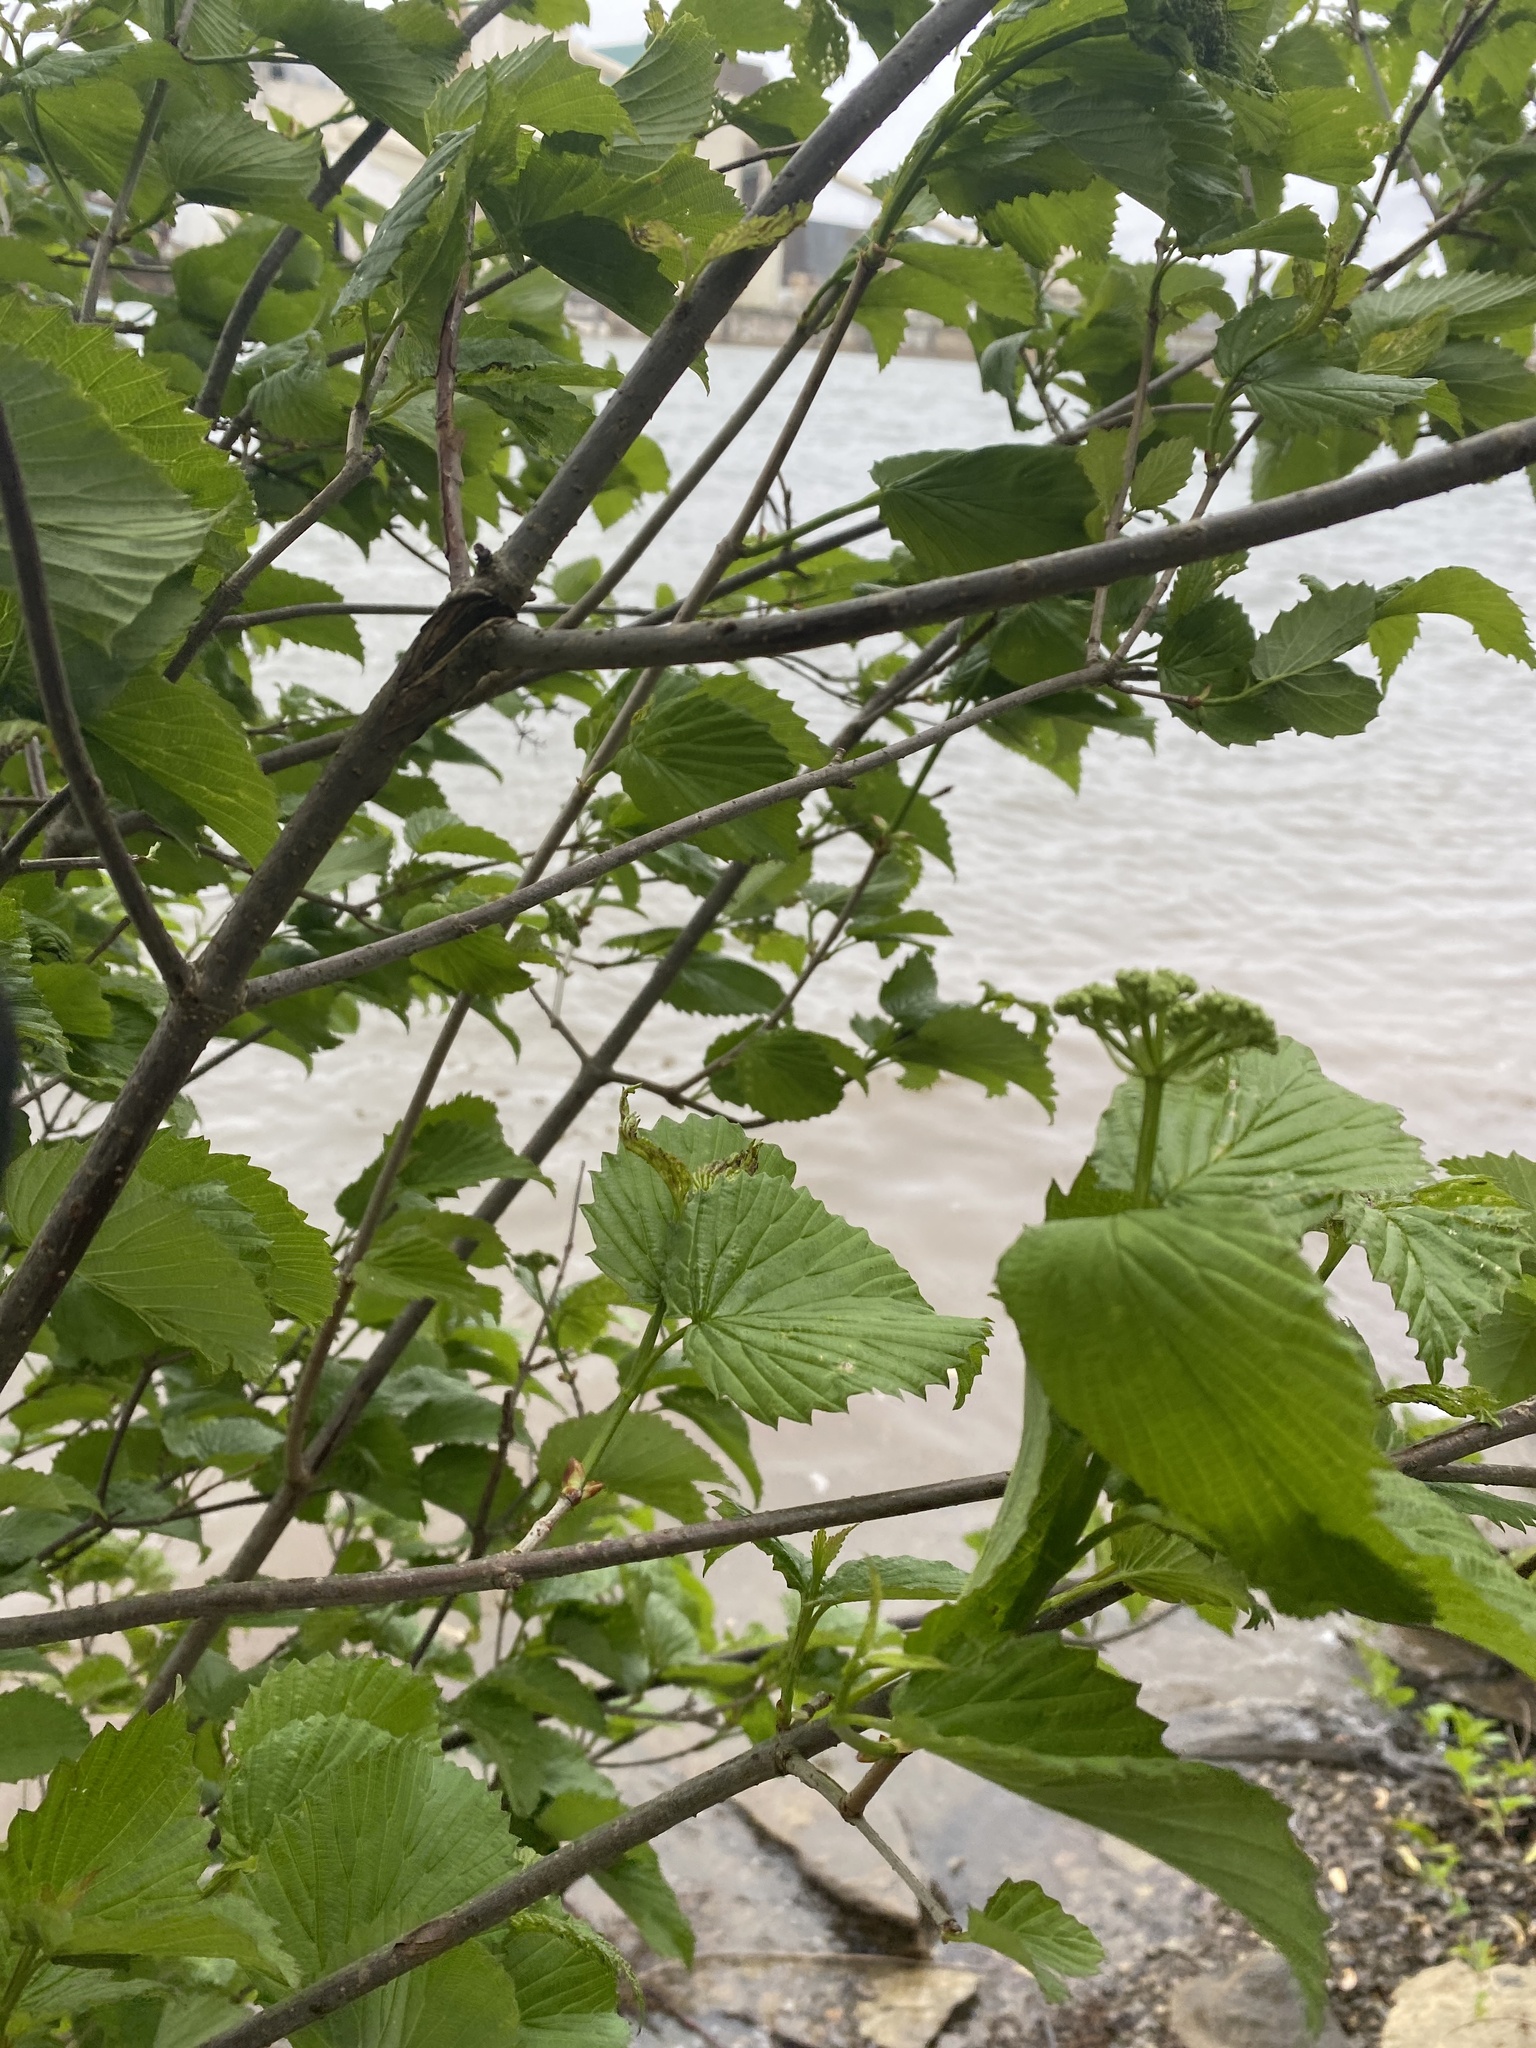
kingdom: Plantae
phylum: Tracheophyta
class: Magnoliopsida
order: Dipsacales
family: Viburnaceae
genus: Viburnum
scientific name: Viburnum recognitum
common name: Northern arrow-wood
